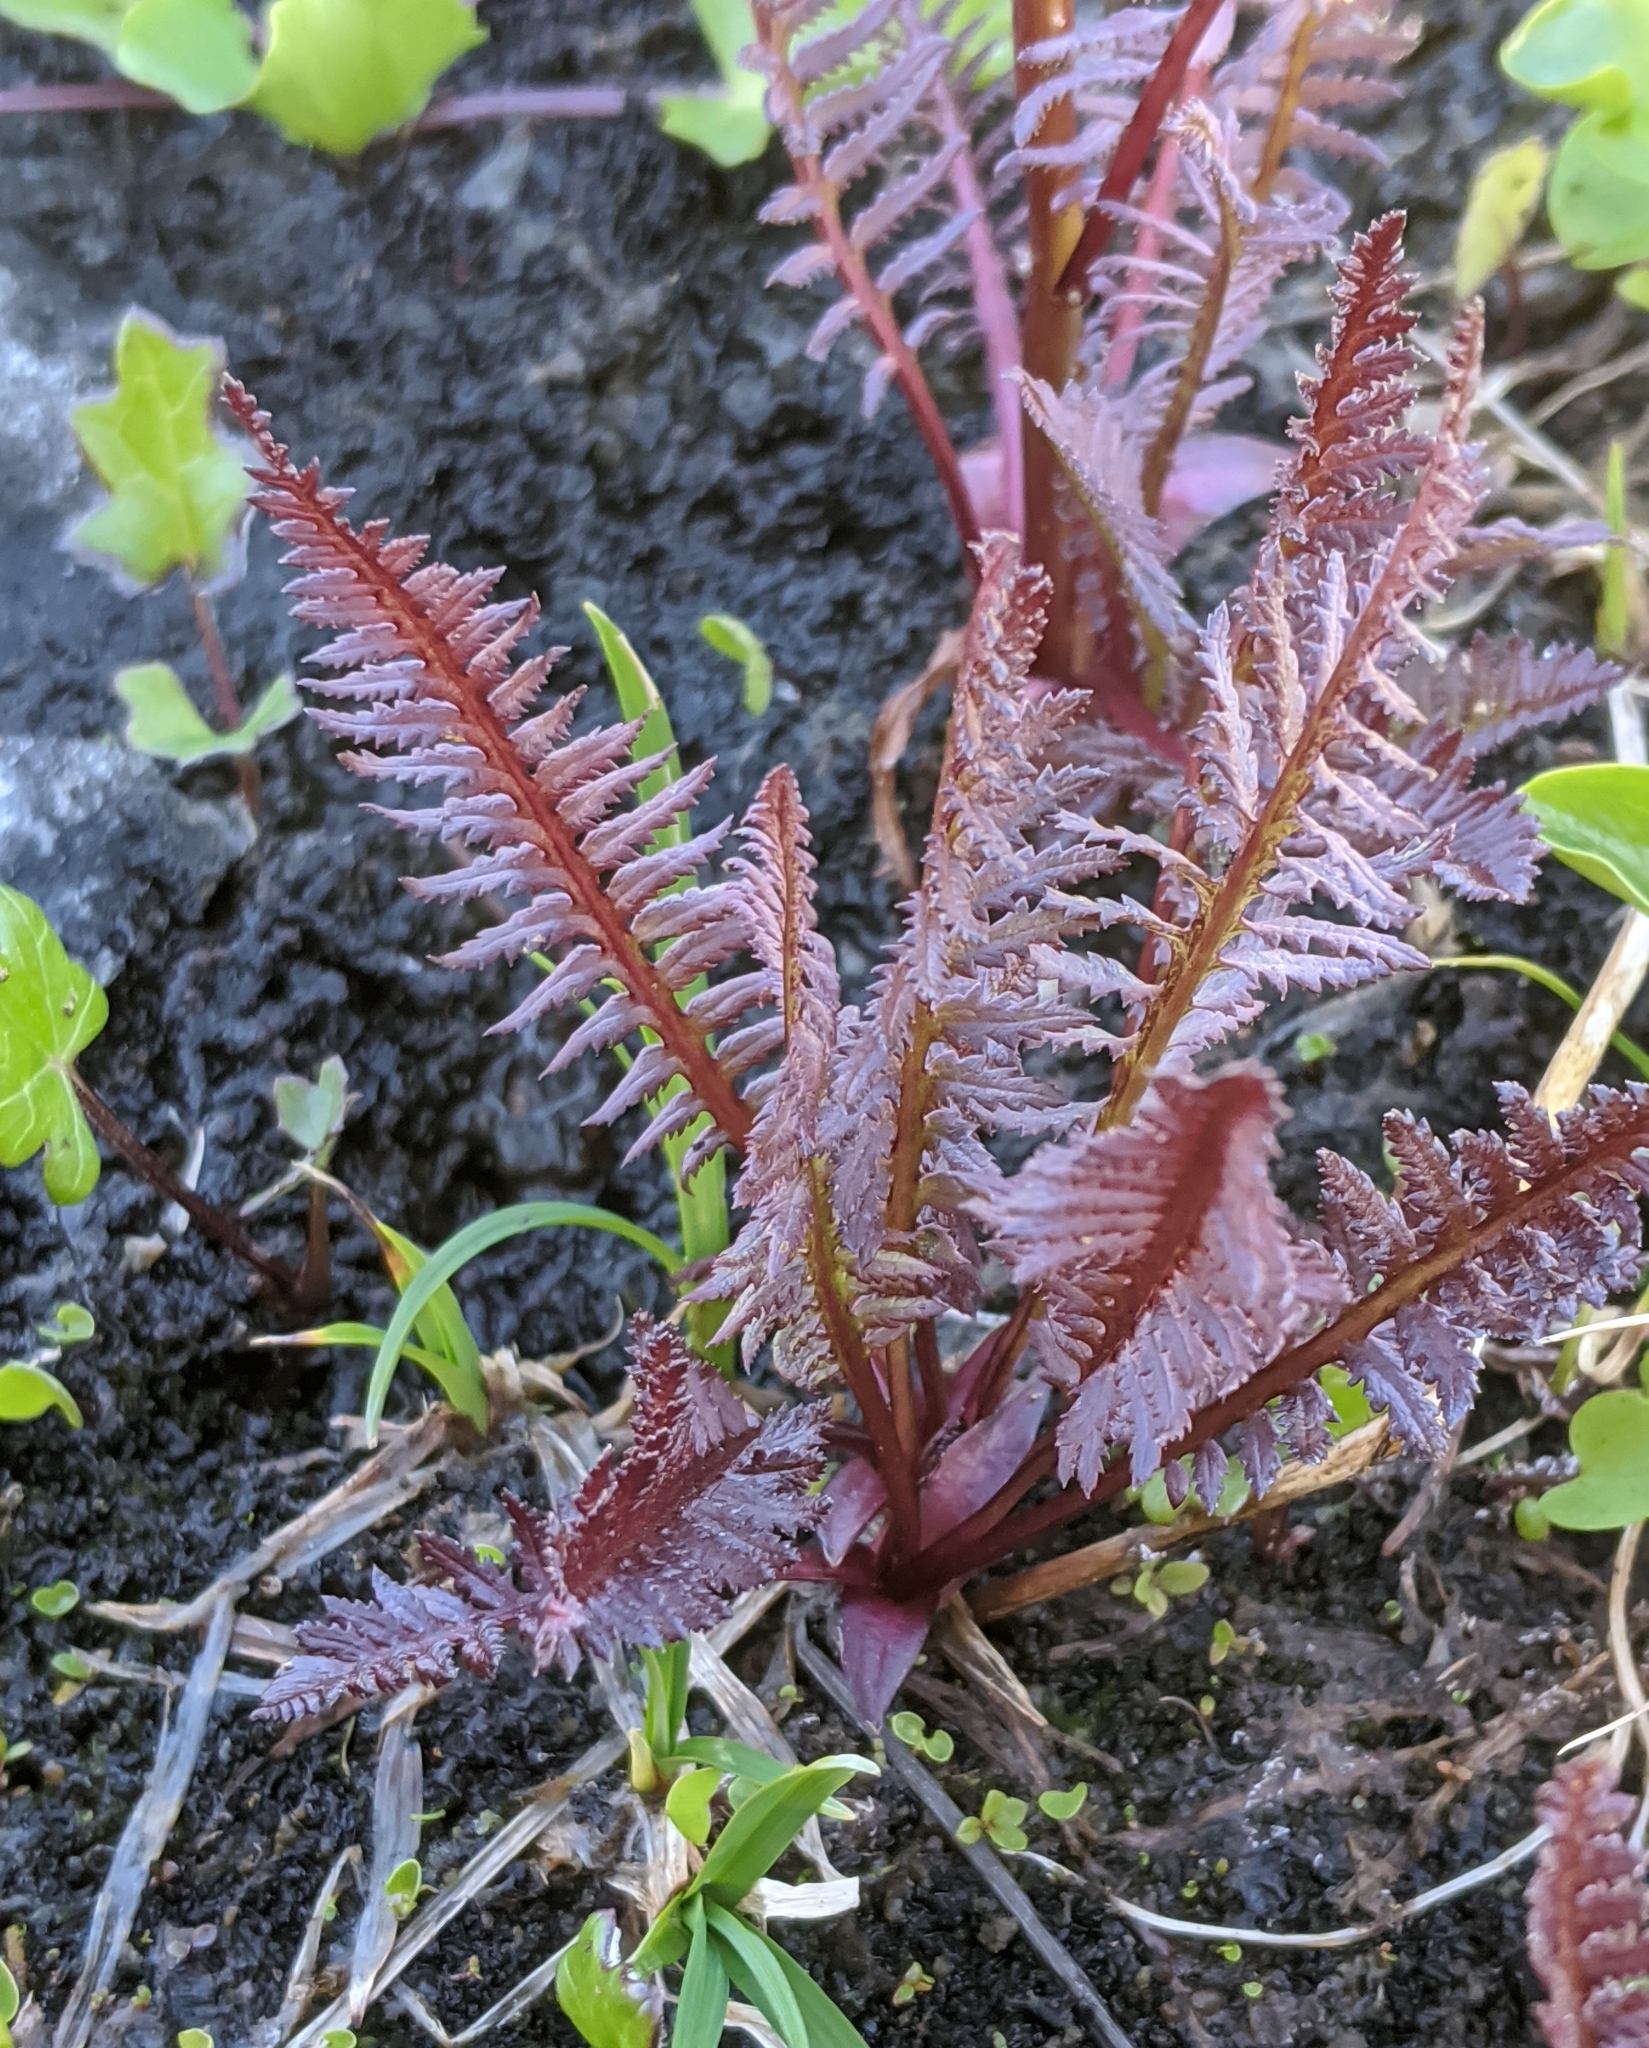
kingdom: Plantae
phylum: Tracheophyta
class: Magnoliopsida
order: Lamiales
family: Orobanchaceae
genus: Pedicularis
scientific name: Pedicularis groenlandica
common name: Elephant's-head
